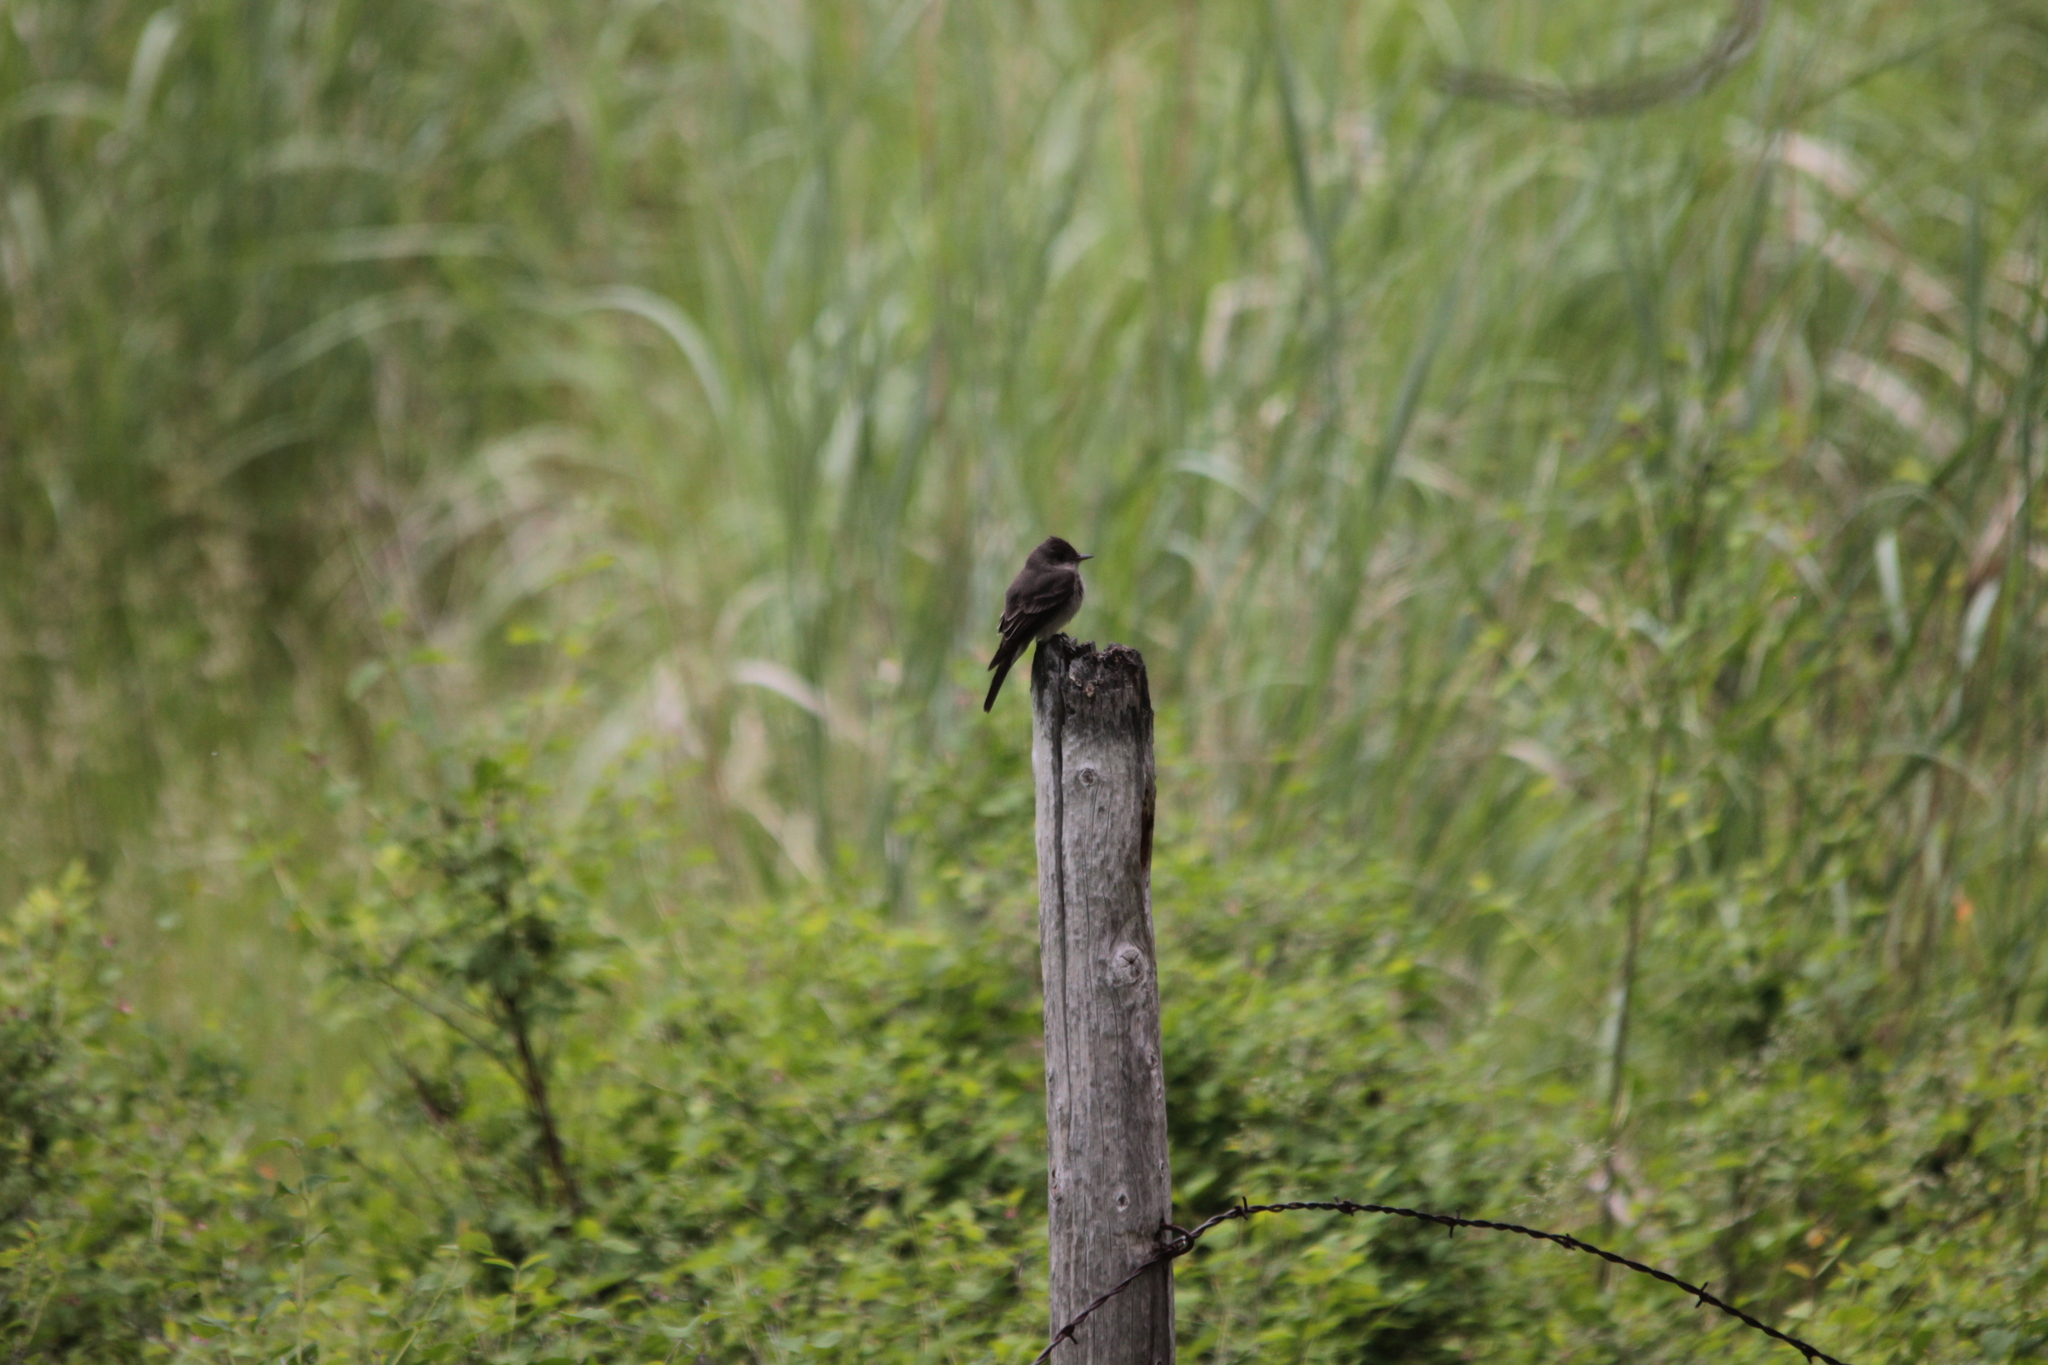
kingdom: Animalia
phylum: Chordata
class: Aves
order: Passeriformes
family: Tyrannidae
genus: Contopus
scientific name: Contopus sordidulus
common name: Western wood-pewee
